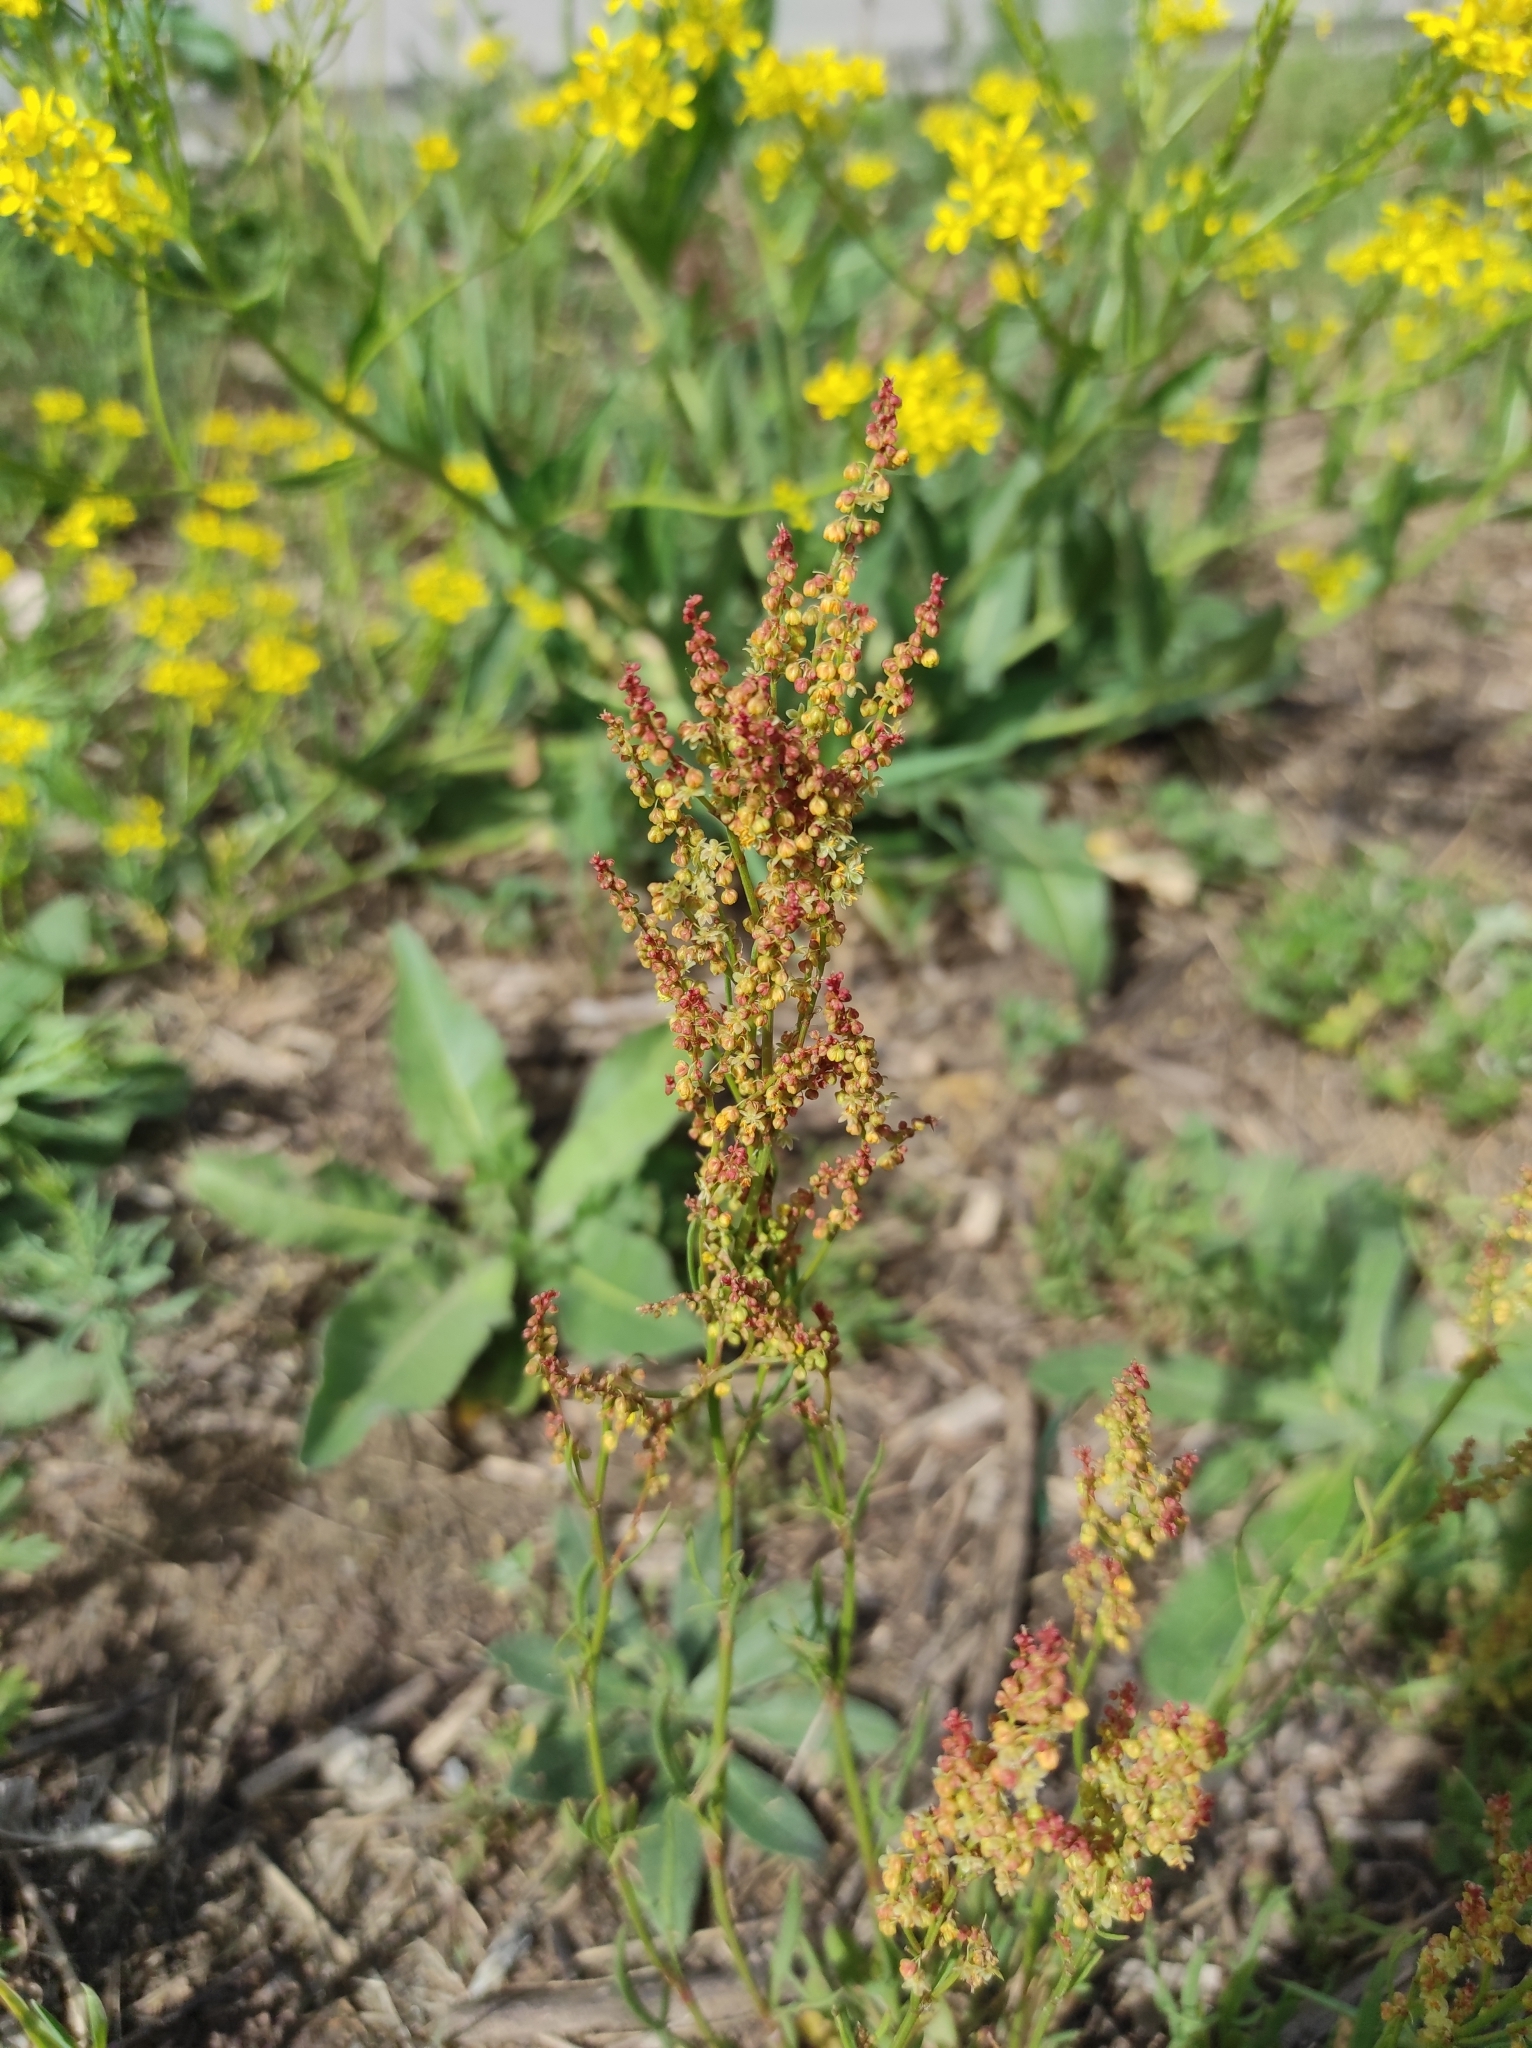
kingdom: Plantae
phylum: Tracheophyta
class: Magnoliopsida
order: Caryophyllales
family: Polygonaceae
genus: Rumex
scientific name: Rumex acetosella
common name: Common sheep sorrel
